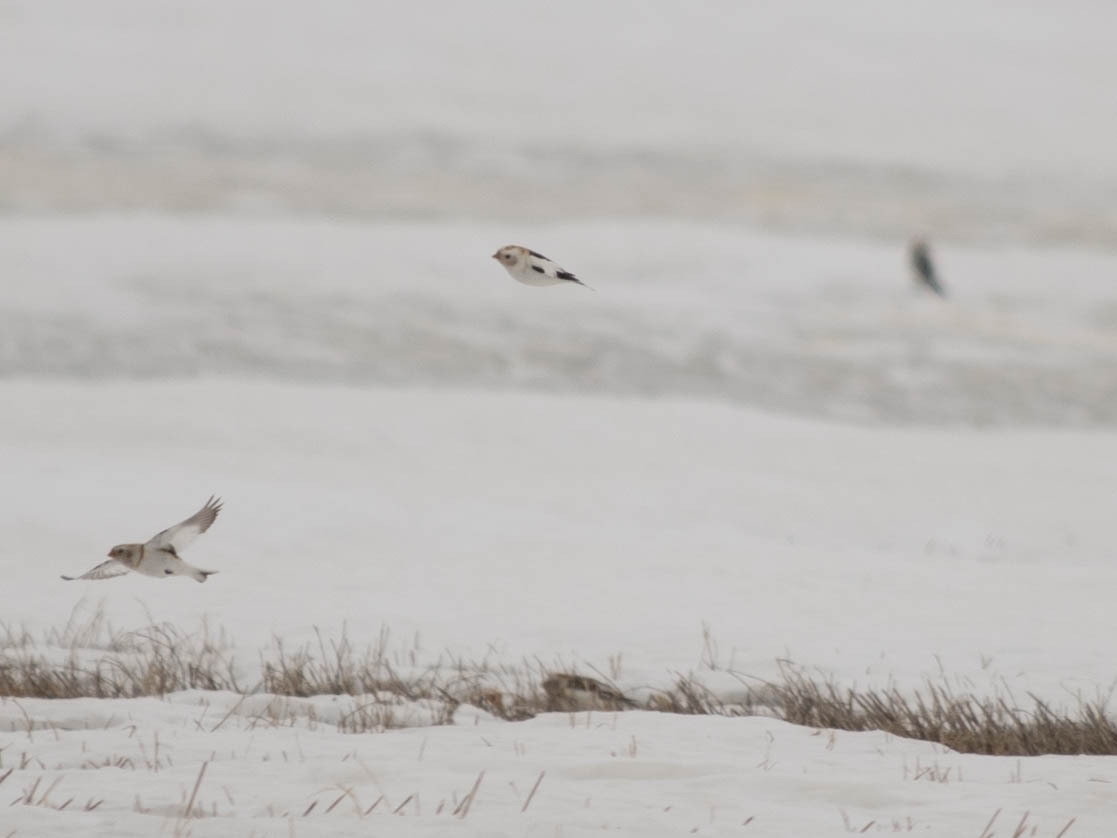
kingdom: Animalia
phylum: Chordata
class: Aves
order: Passeriformes
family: Calcariidae
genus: Plectrophenax
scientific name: Plectrophenax nivalis
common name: Snow bunting
